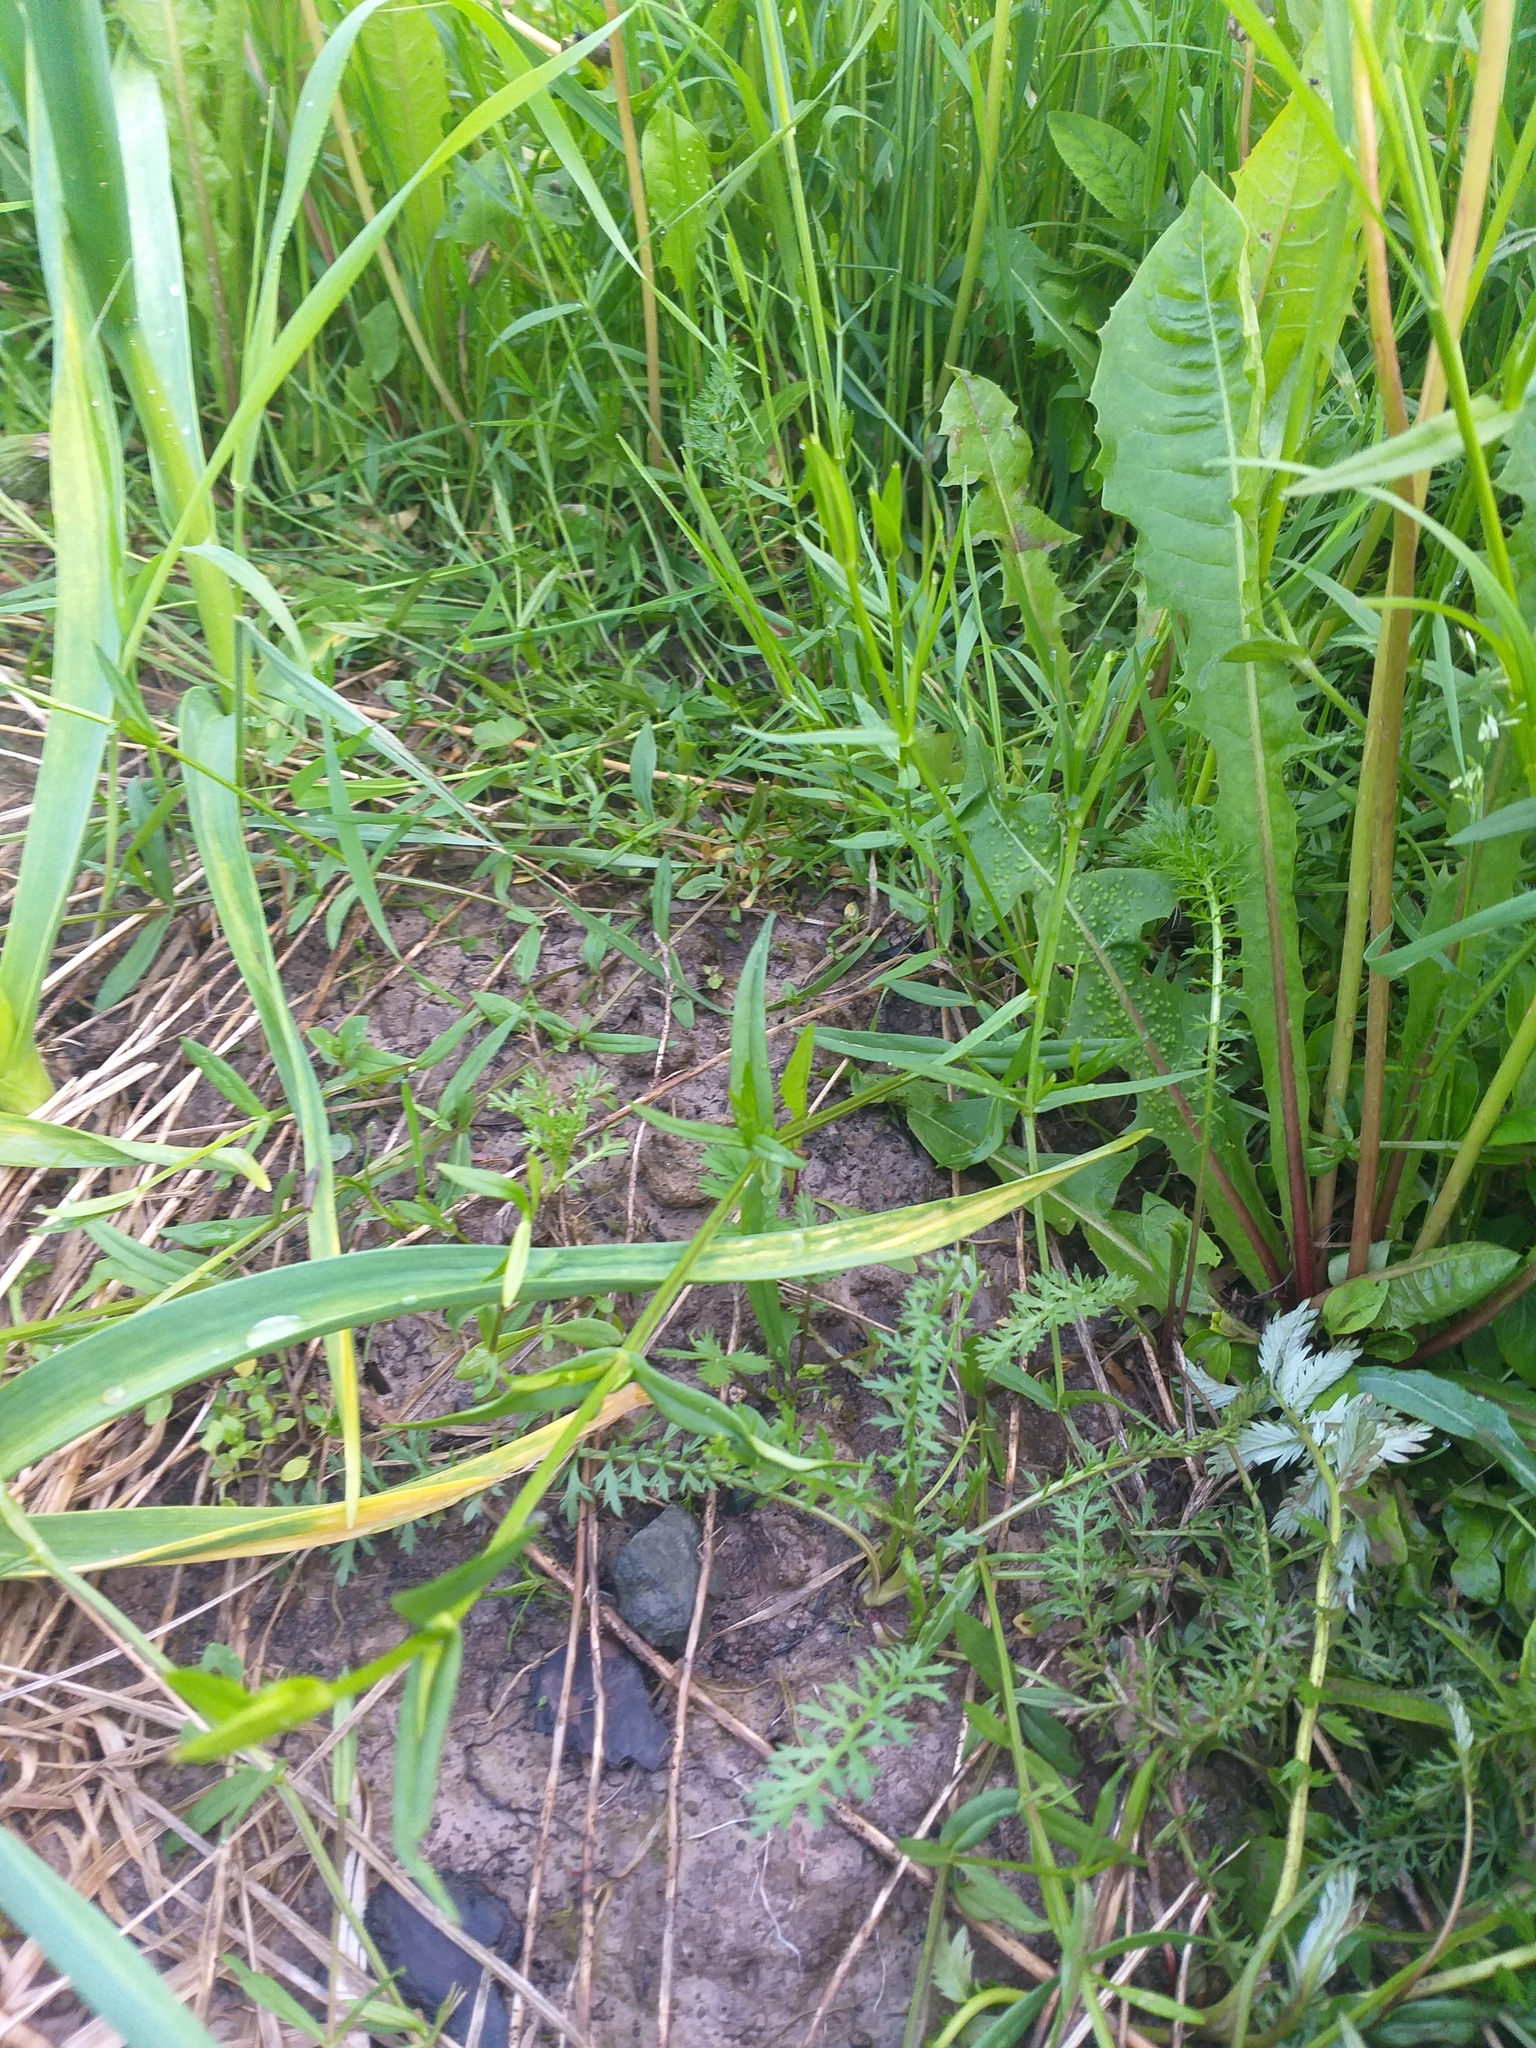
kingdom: Plantae
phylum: Tracheophyta
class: Magnoliopsida
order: Caryophyllales
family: Caryophyllaceae
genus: Stellaria
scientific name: Stellaria graminea
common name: Grass-like starwort
